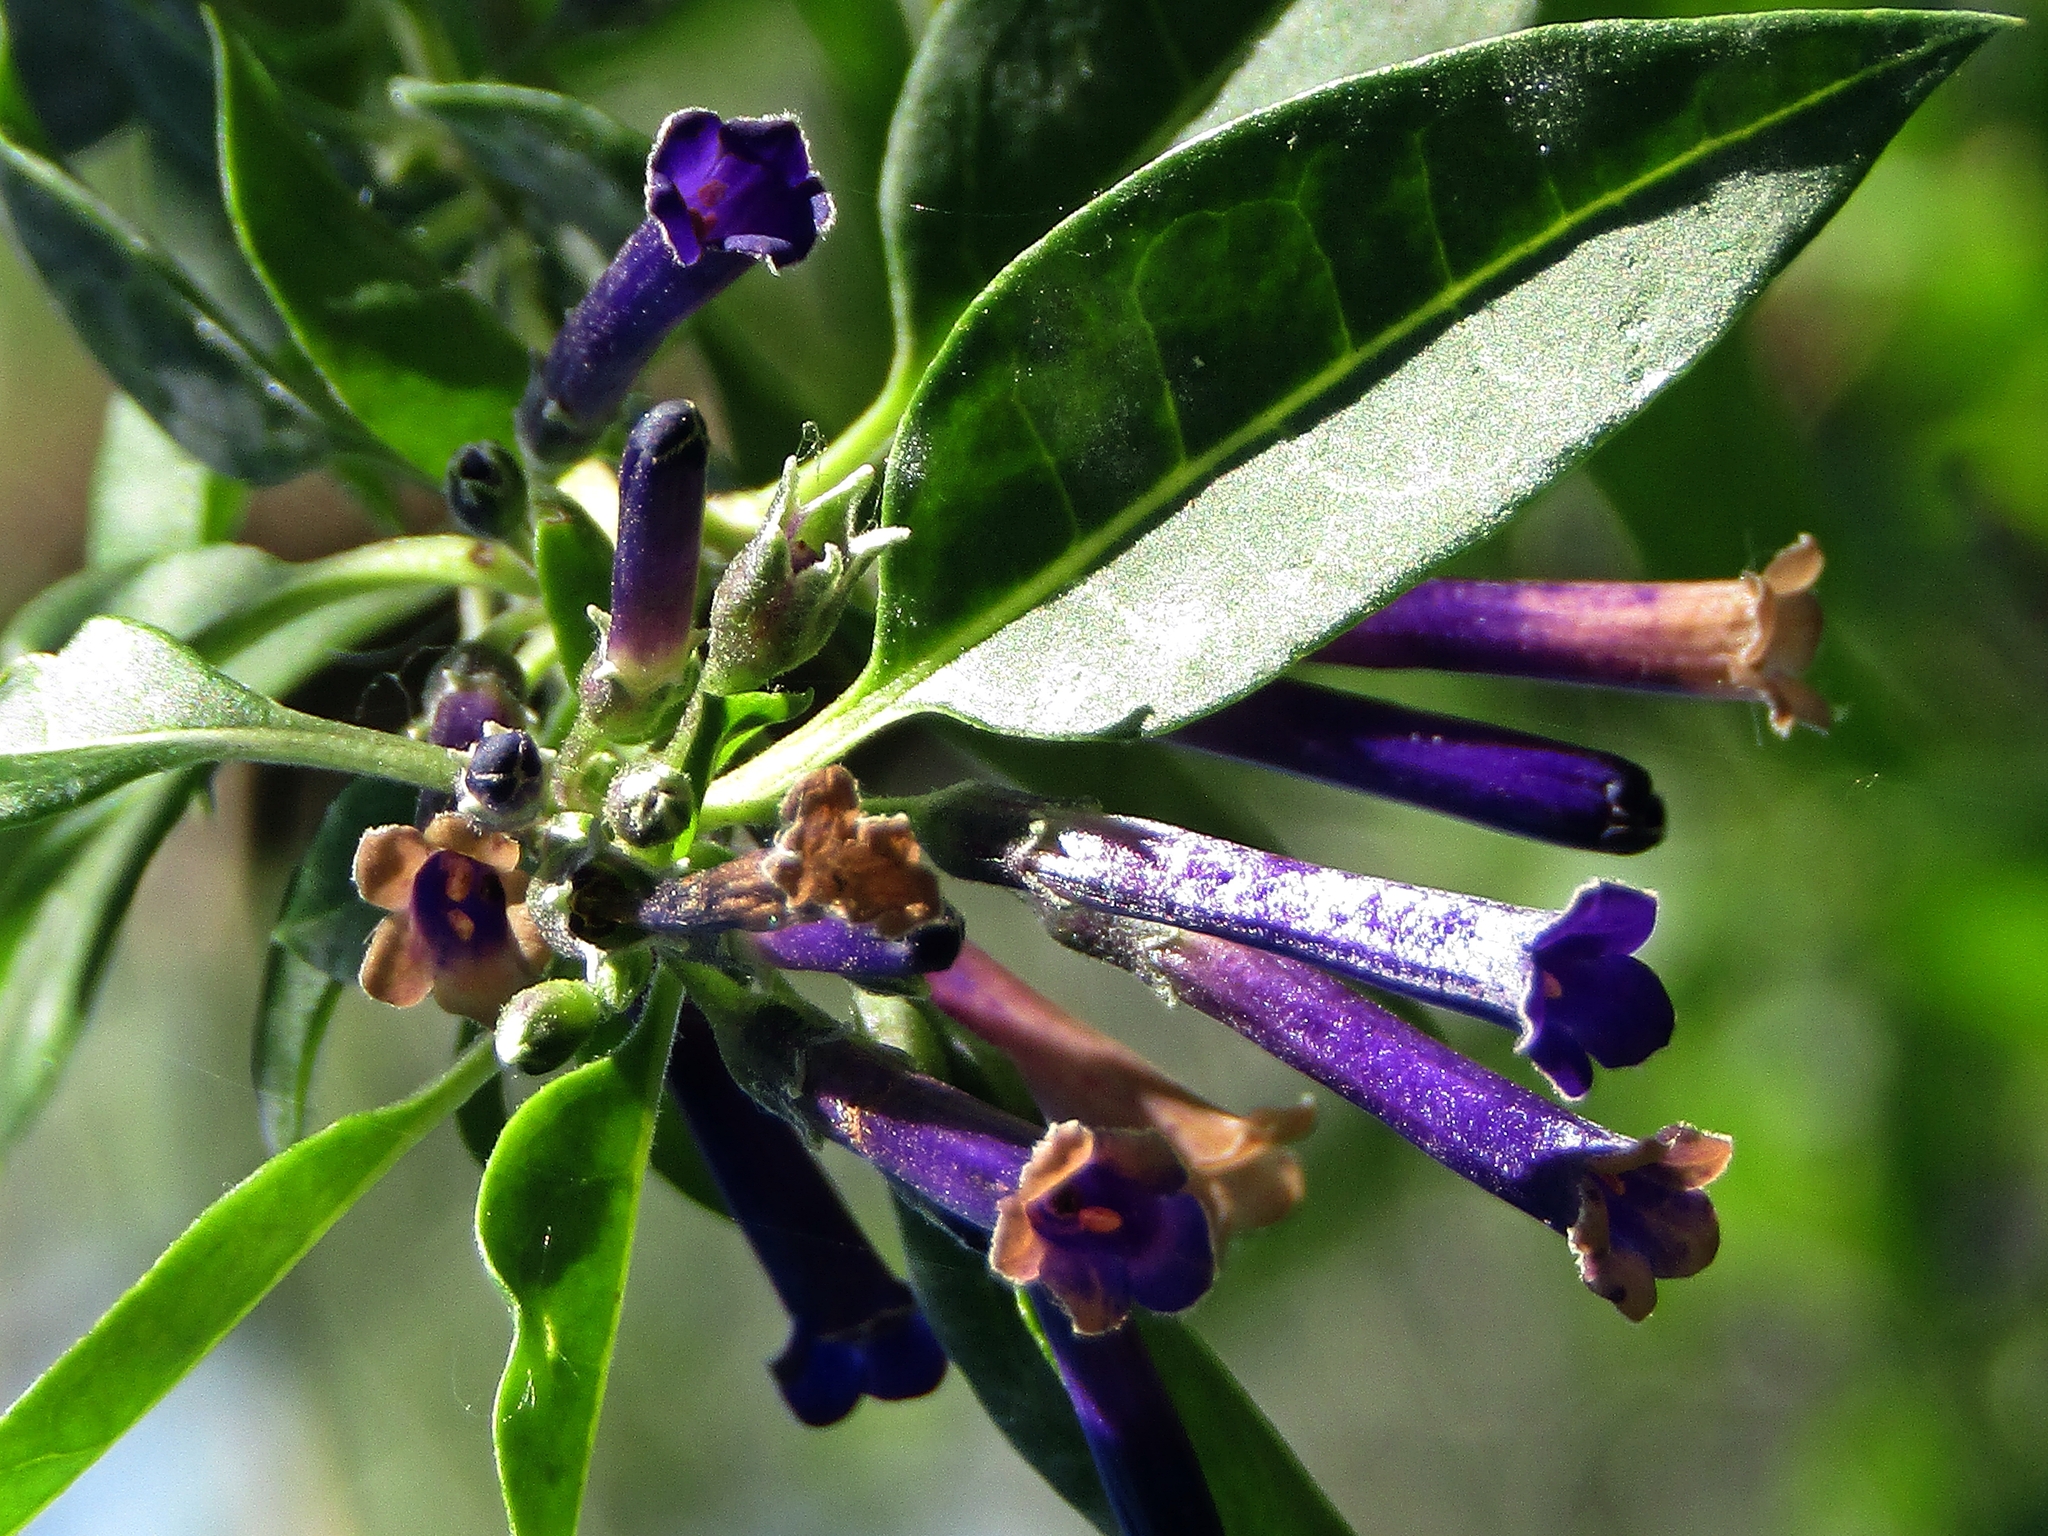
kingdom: Plantae
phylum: Tracheophyta
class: Magnoliopsida
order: Solanales
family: Solanaceae
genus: Lycium
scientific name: Lycium cestroides
